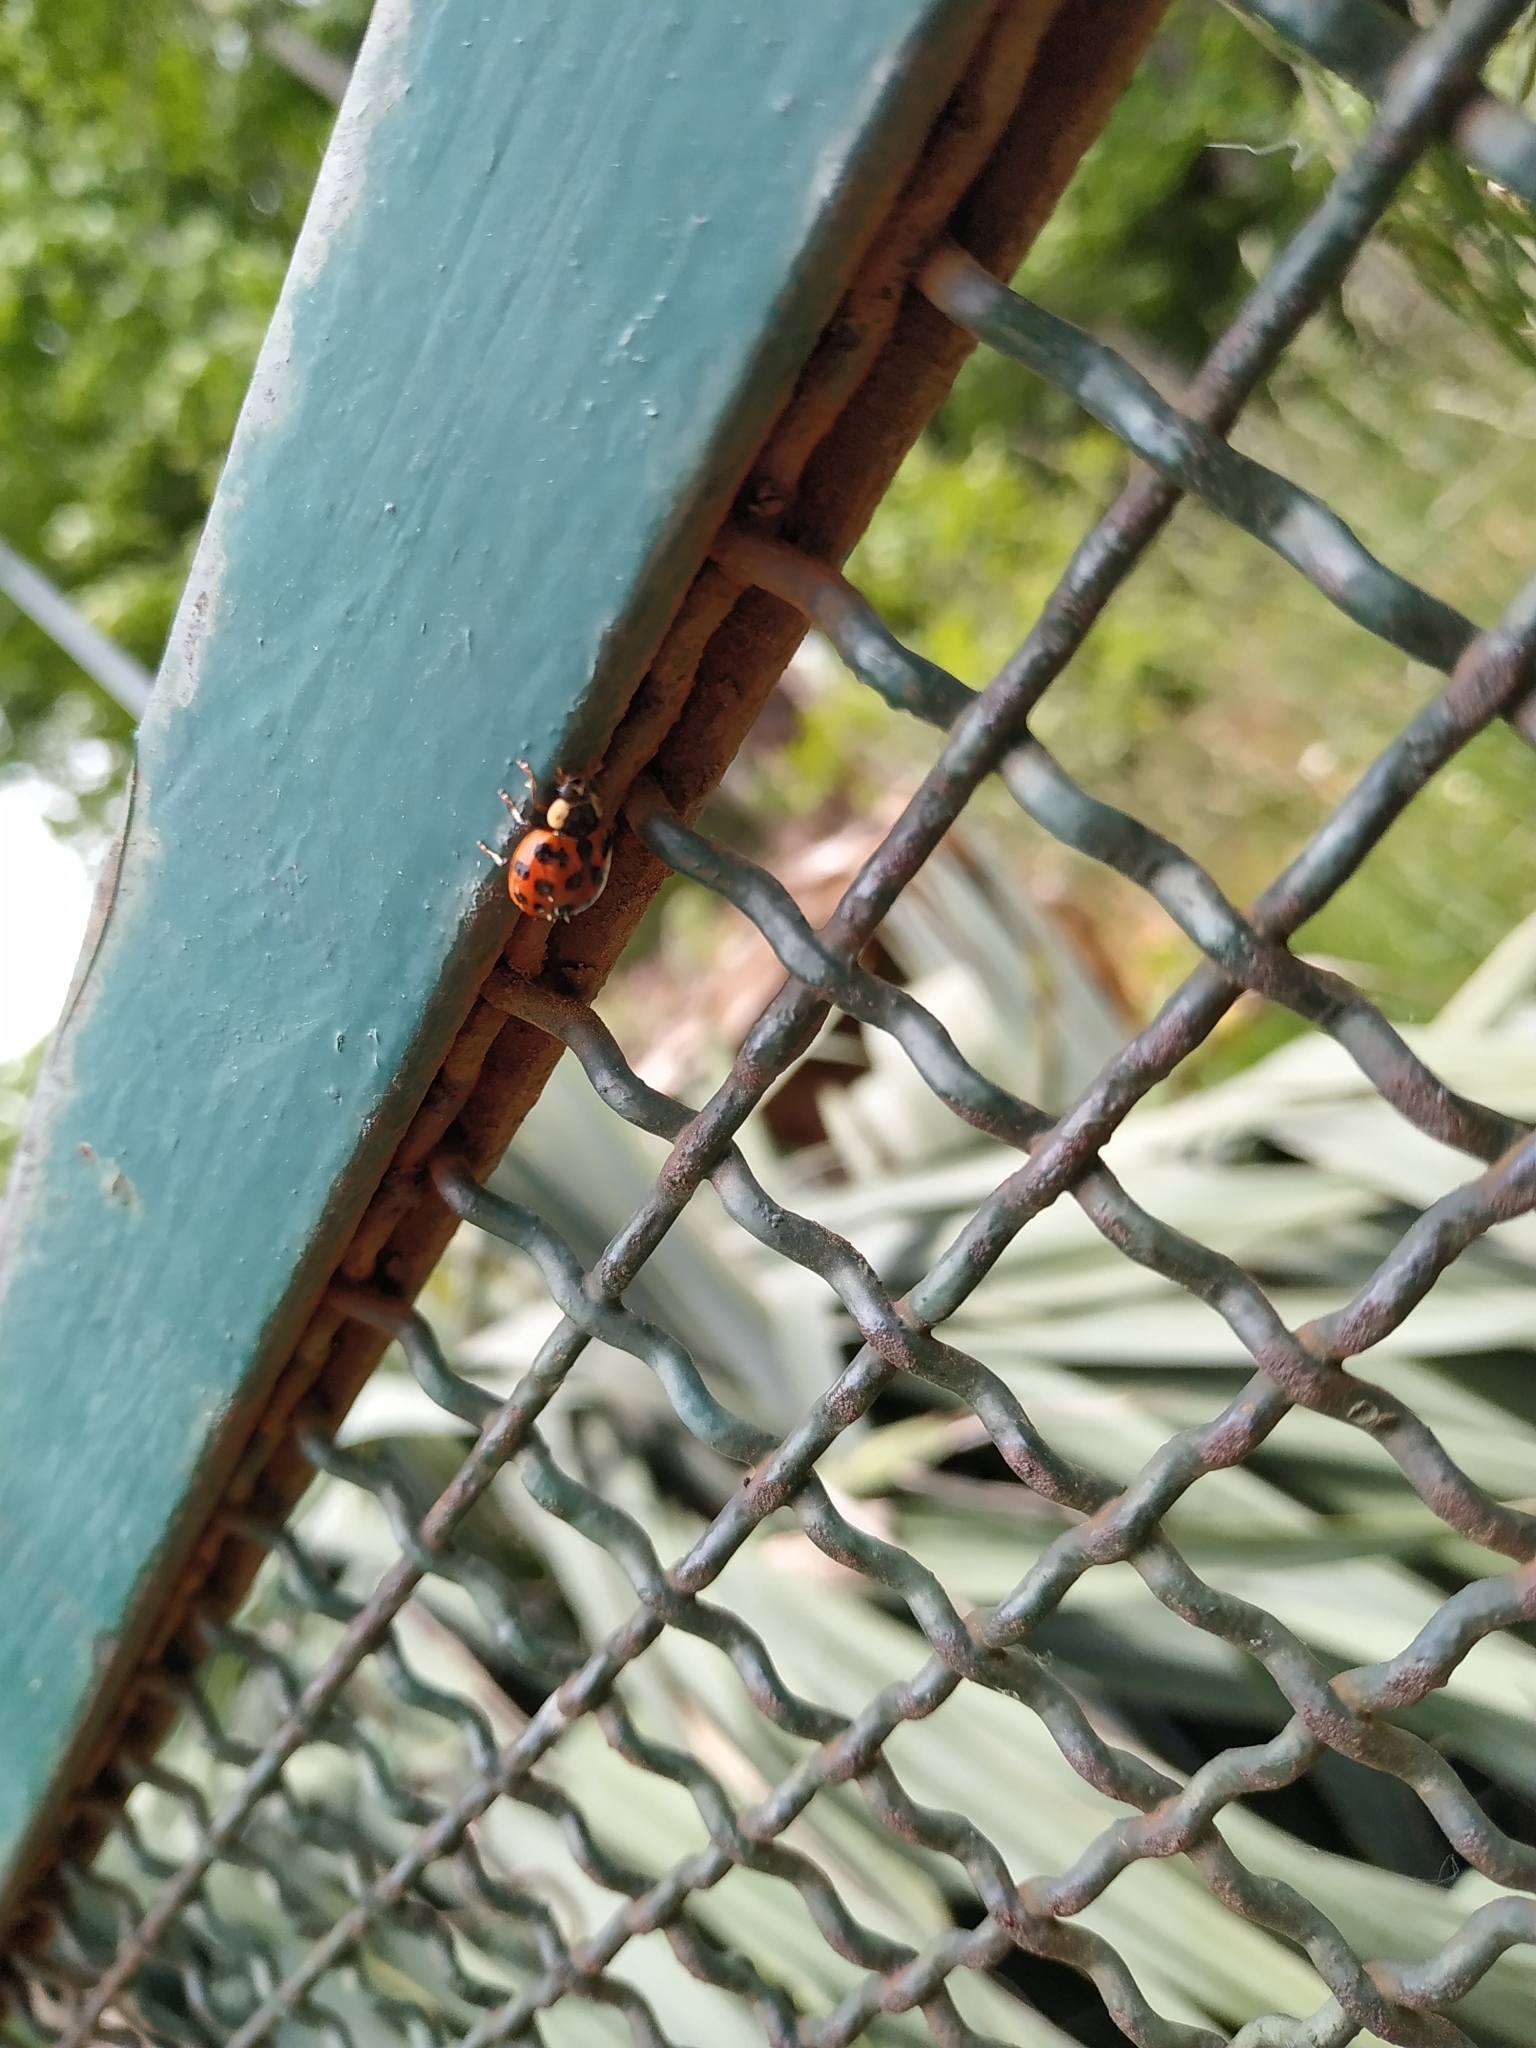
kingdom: Animalia
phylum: Arthropoda
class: Insecta
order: Coleoptera
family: Coccinellidae
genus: Harmonia
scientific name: Harmonia axyridis
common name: Harlequin ladybird
